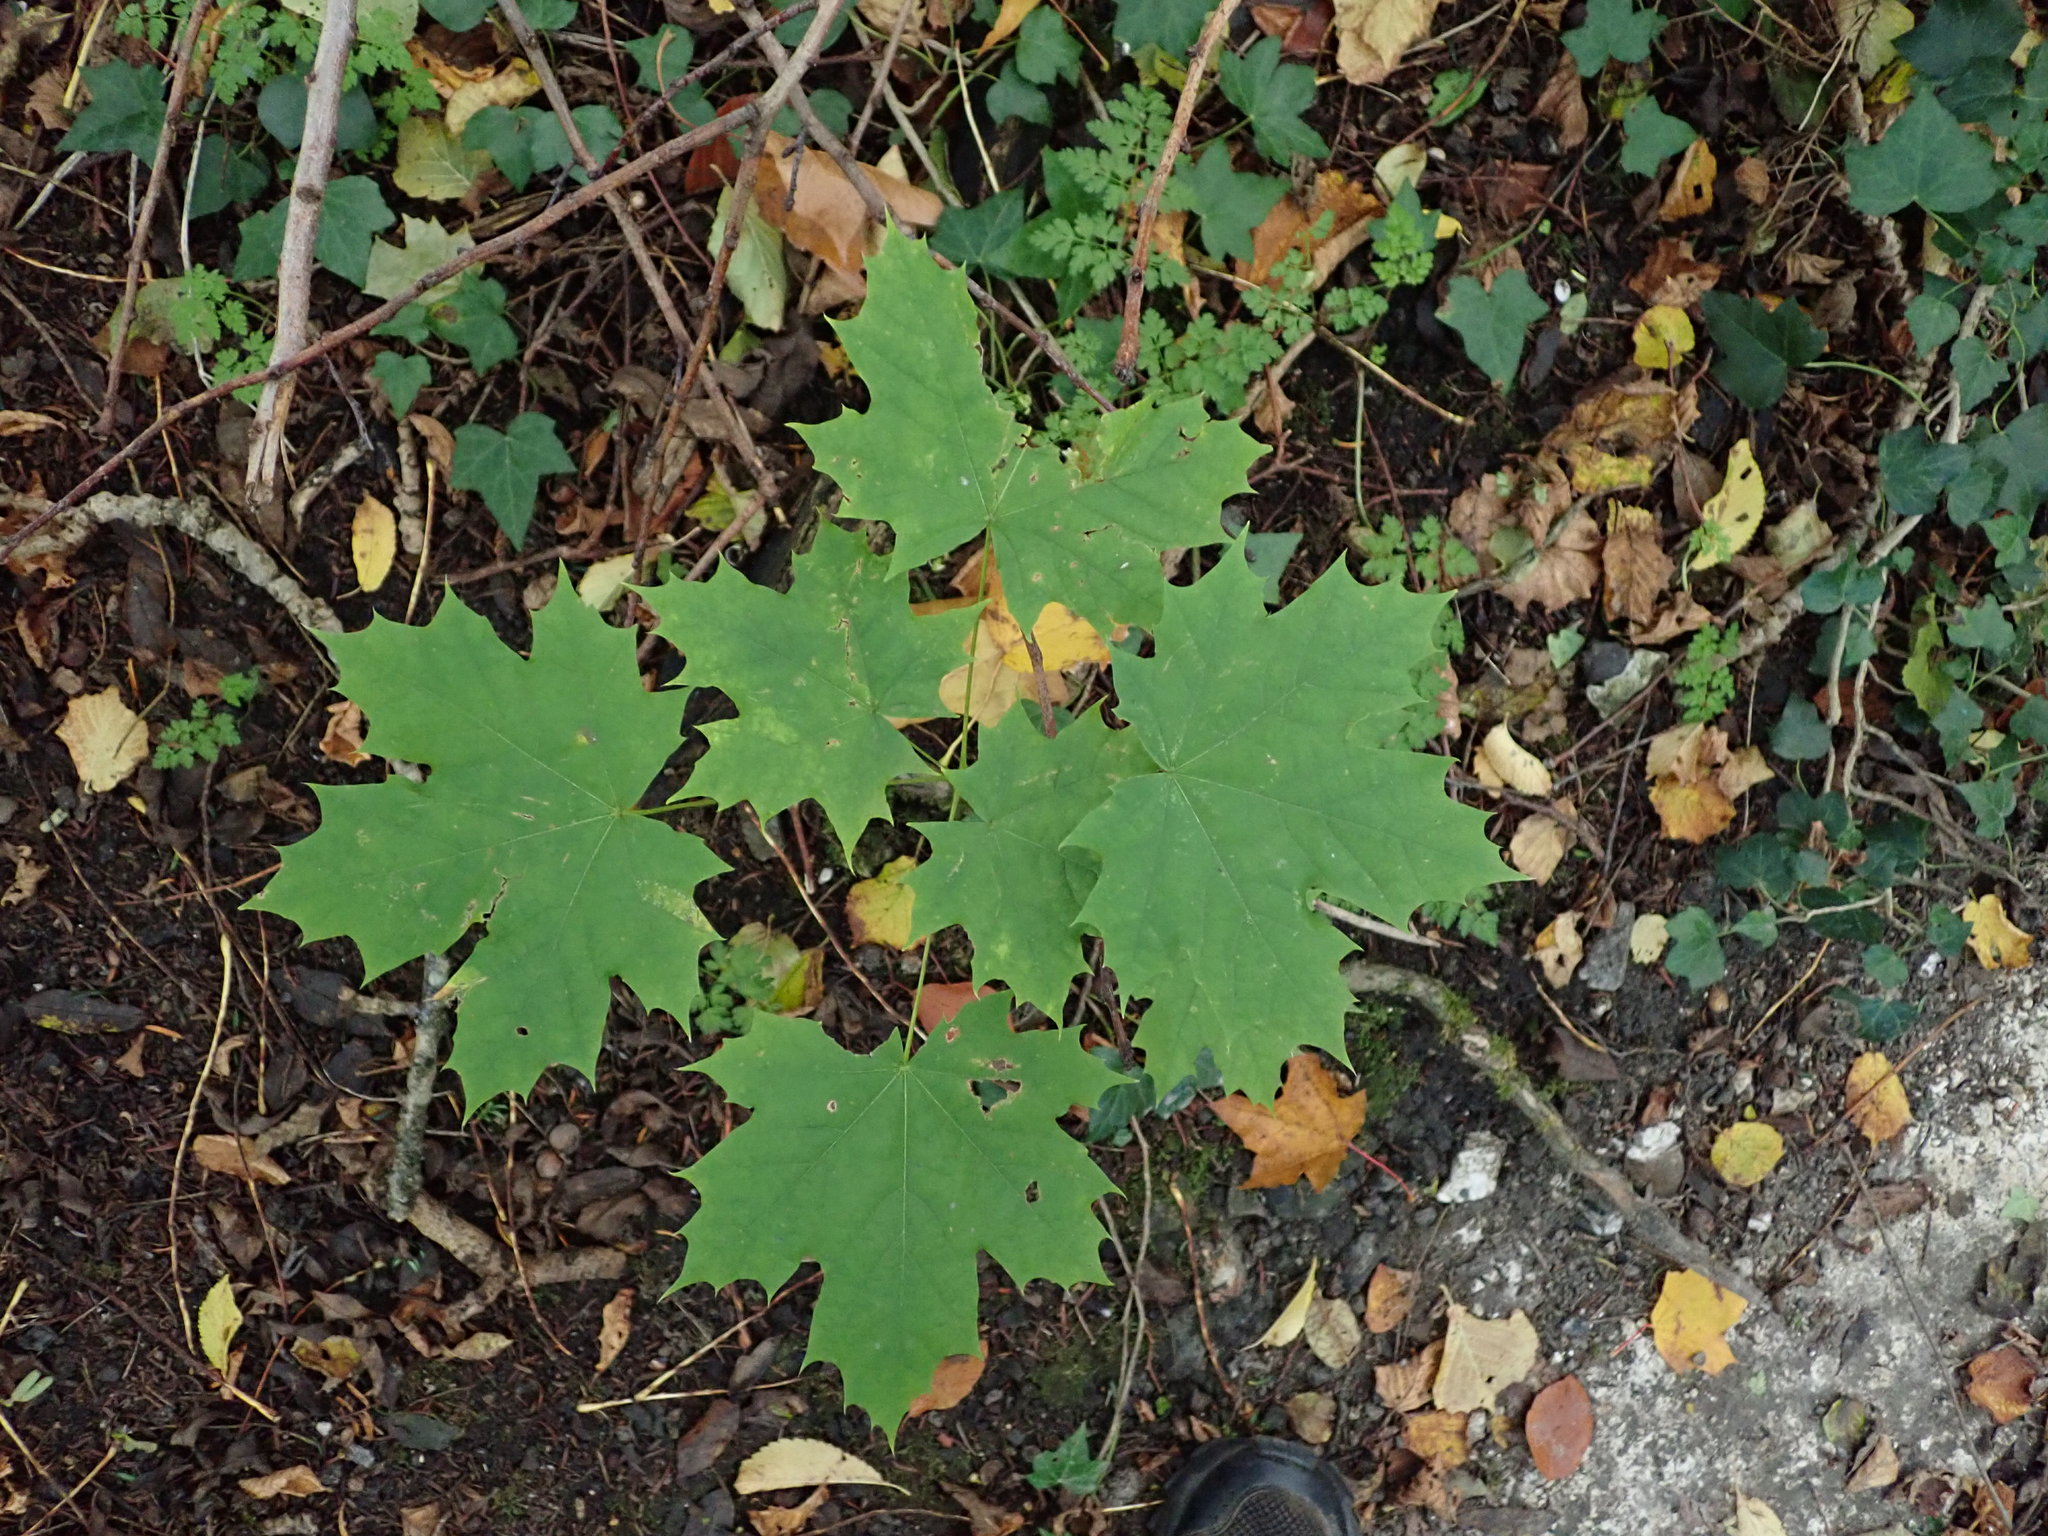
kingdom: Plantae
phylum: Tracheophyta
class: Magnoliopsida
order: Sapindales
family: Sapindaceae
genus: Acer
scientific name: Acer platanoides
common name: Norway maple
